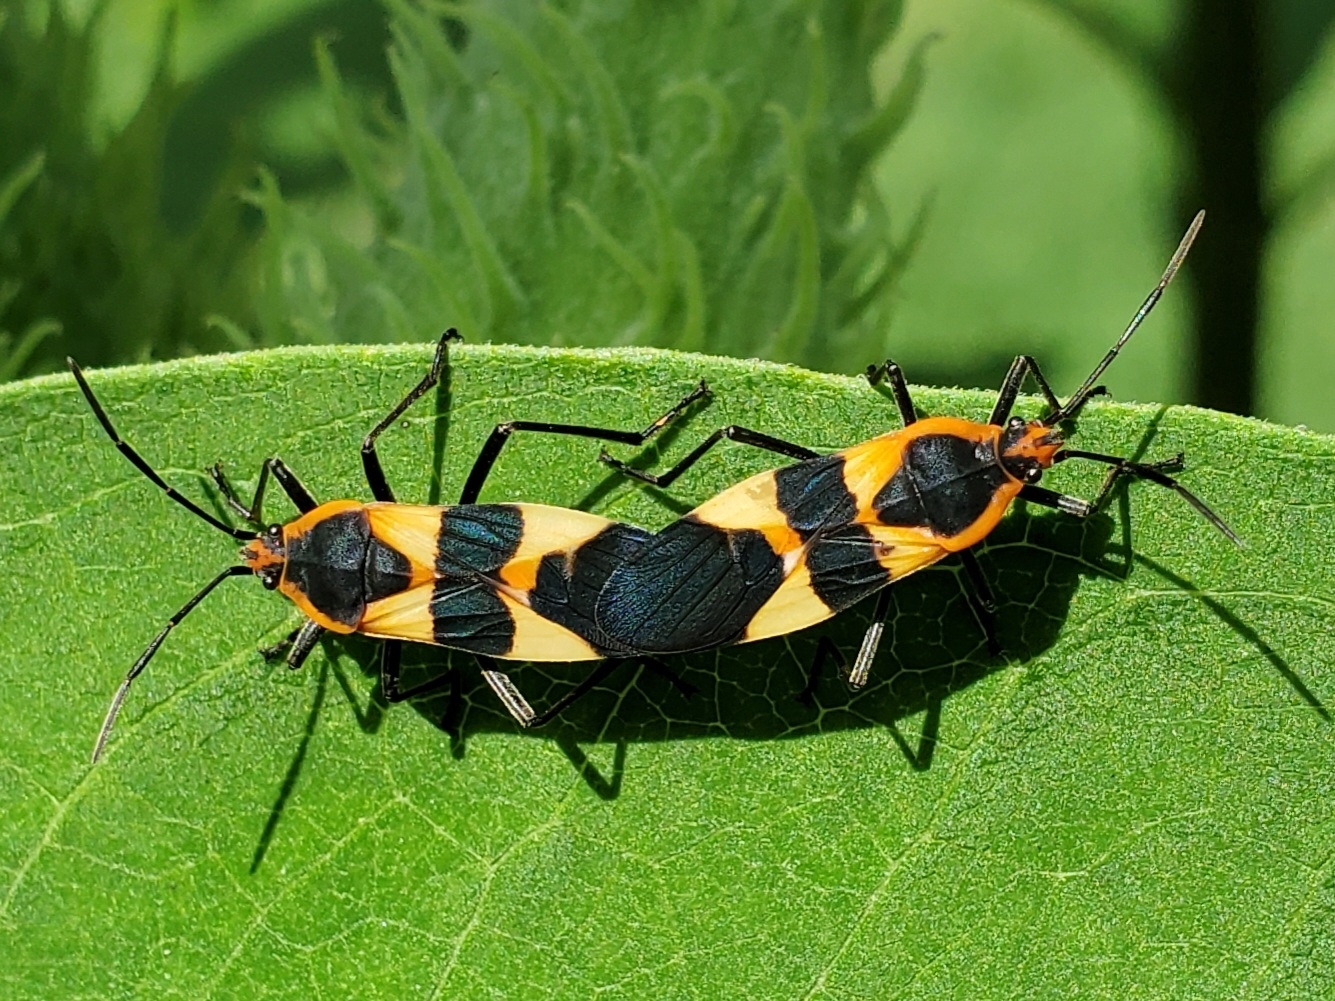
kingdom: Animalia
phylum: Arthropoda
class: Insecta
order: Hemiptera
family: Lygaeidae
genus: Oncopeltus
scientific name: Oncopeltus fasciatus
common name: Large milkweed bug
